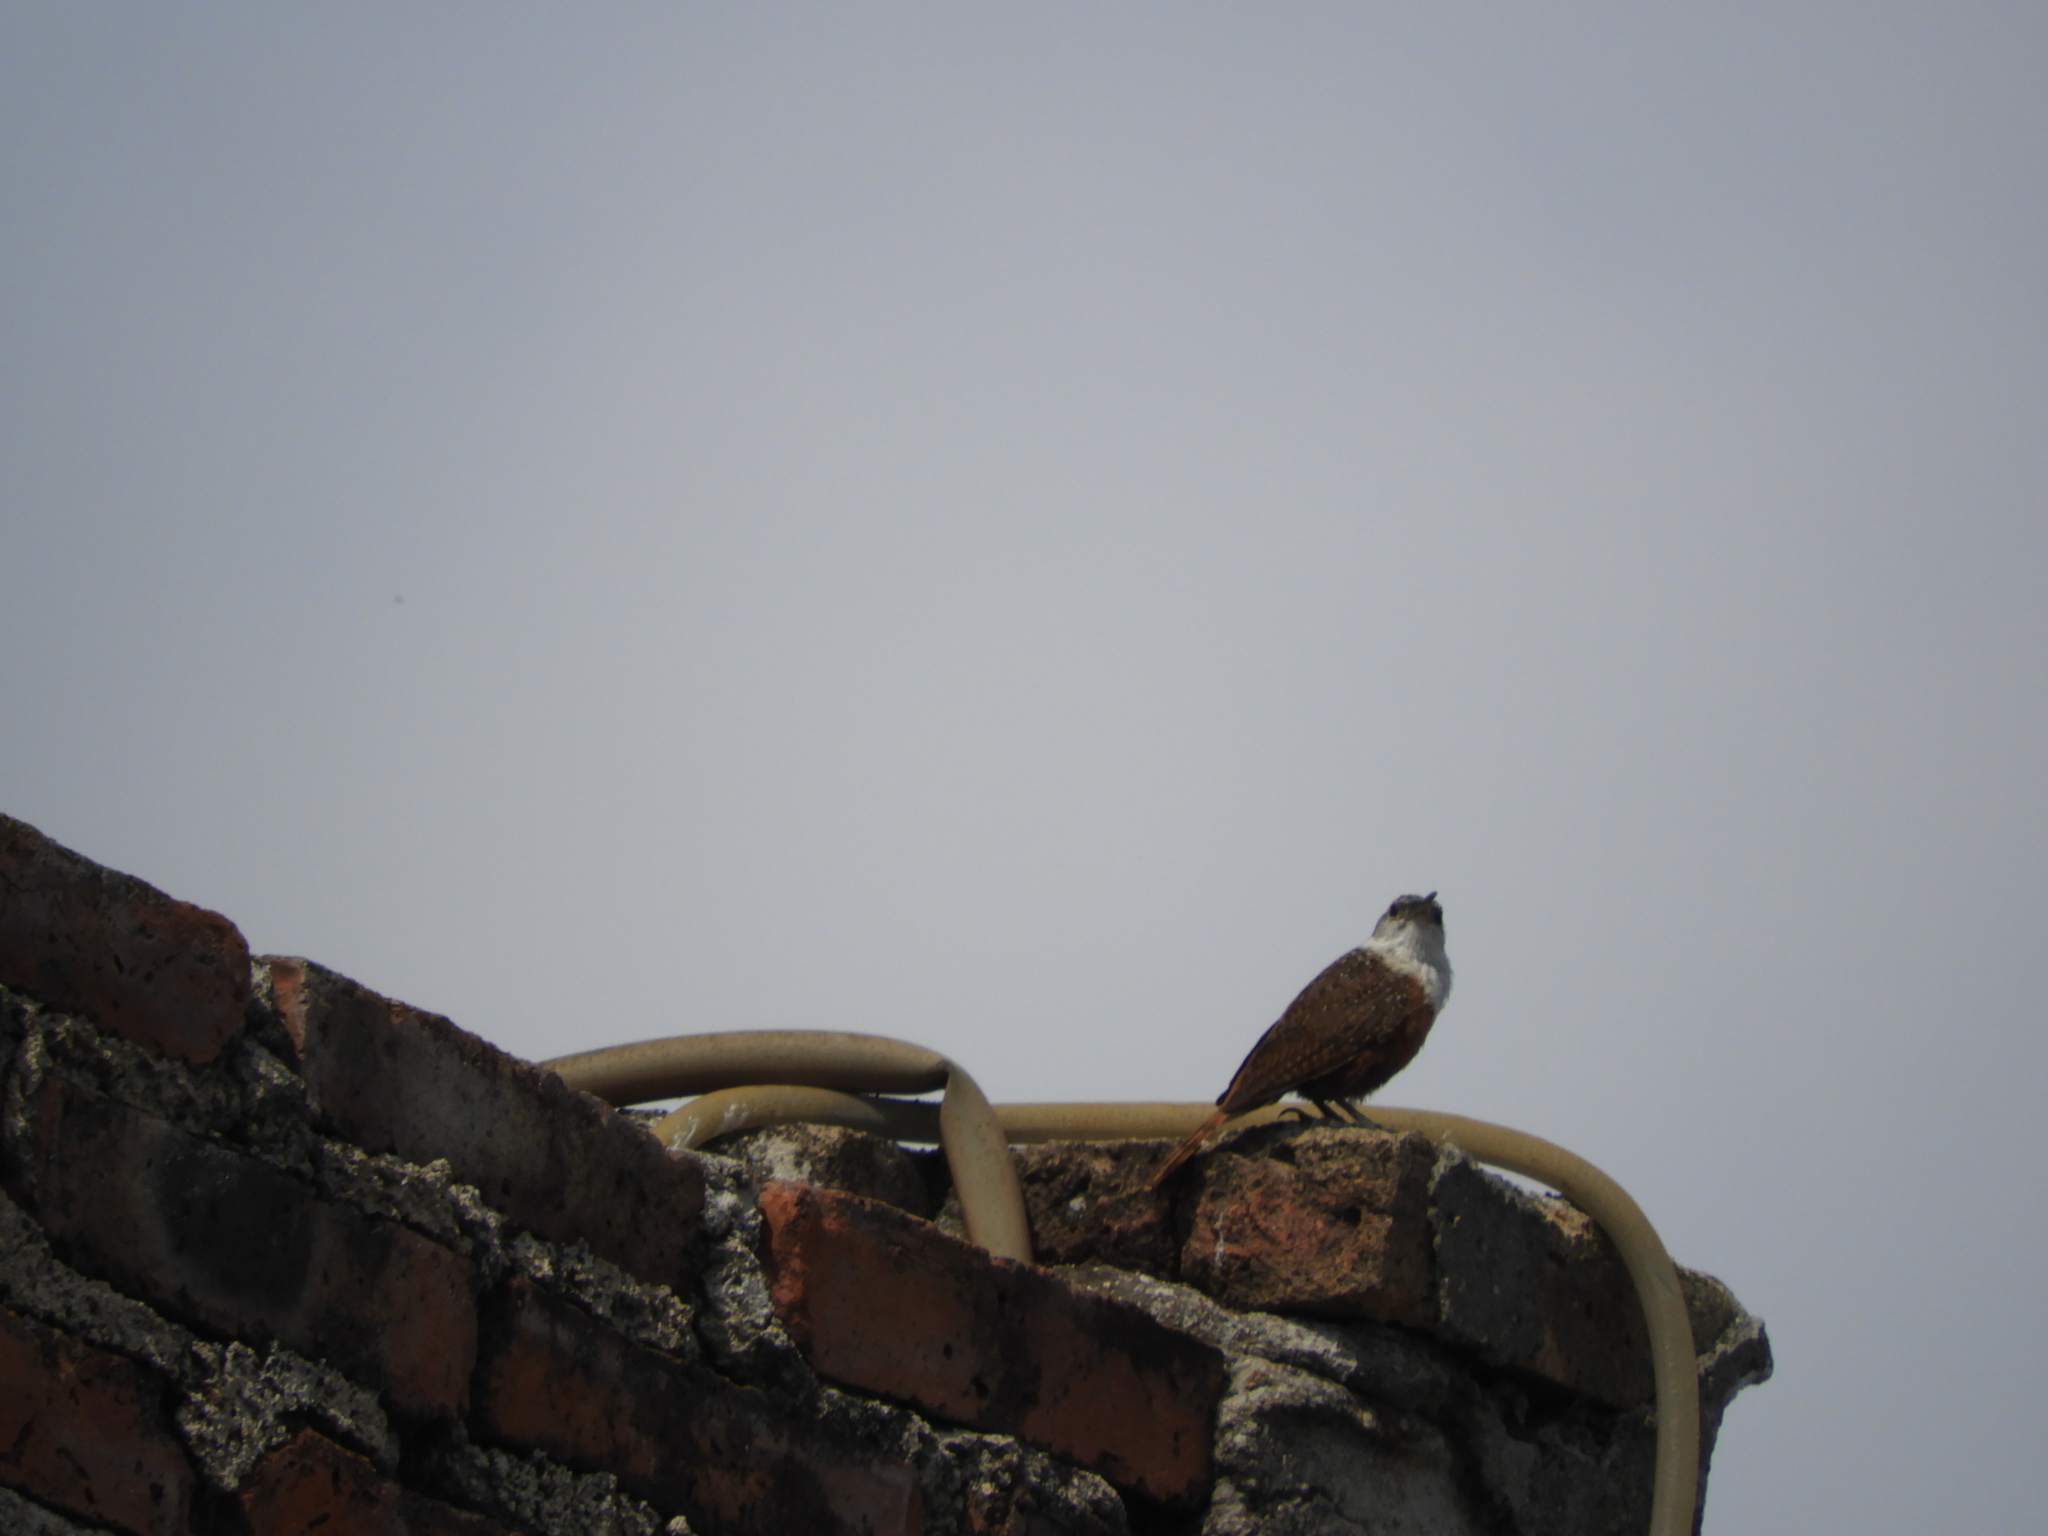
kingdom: Animalia
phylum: Chordata
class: Aves
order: Passeriformes
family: Troglodytidae
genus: Catherpes
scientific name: Catherpes mexicanus
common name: Canyon wren
